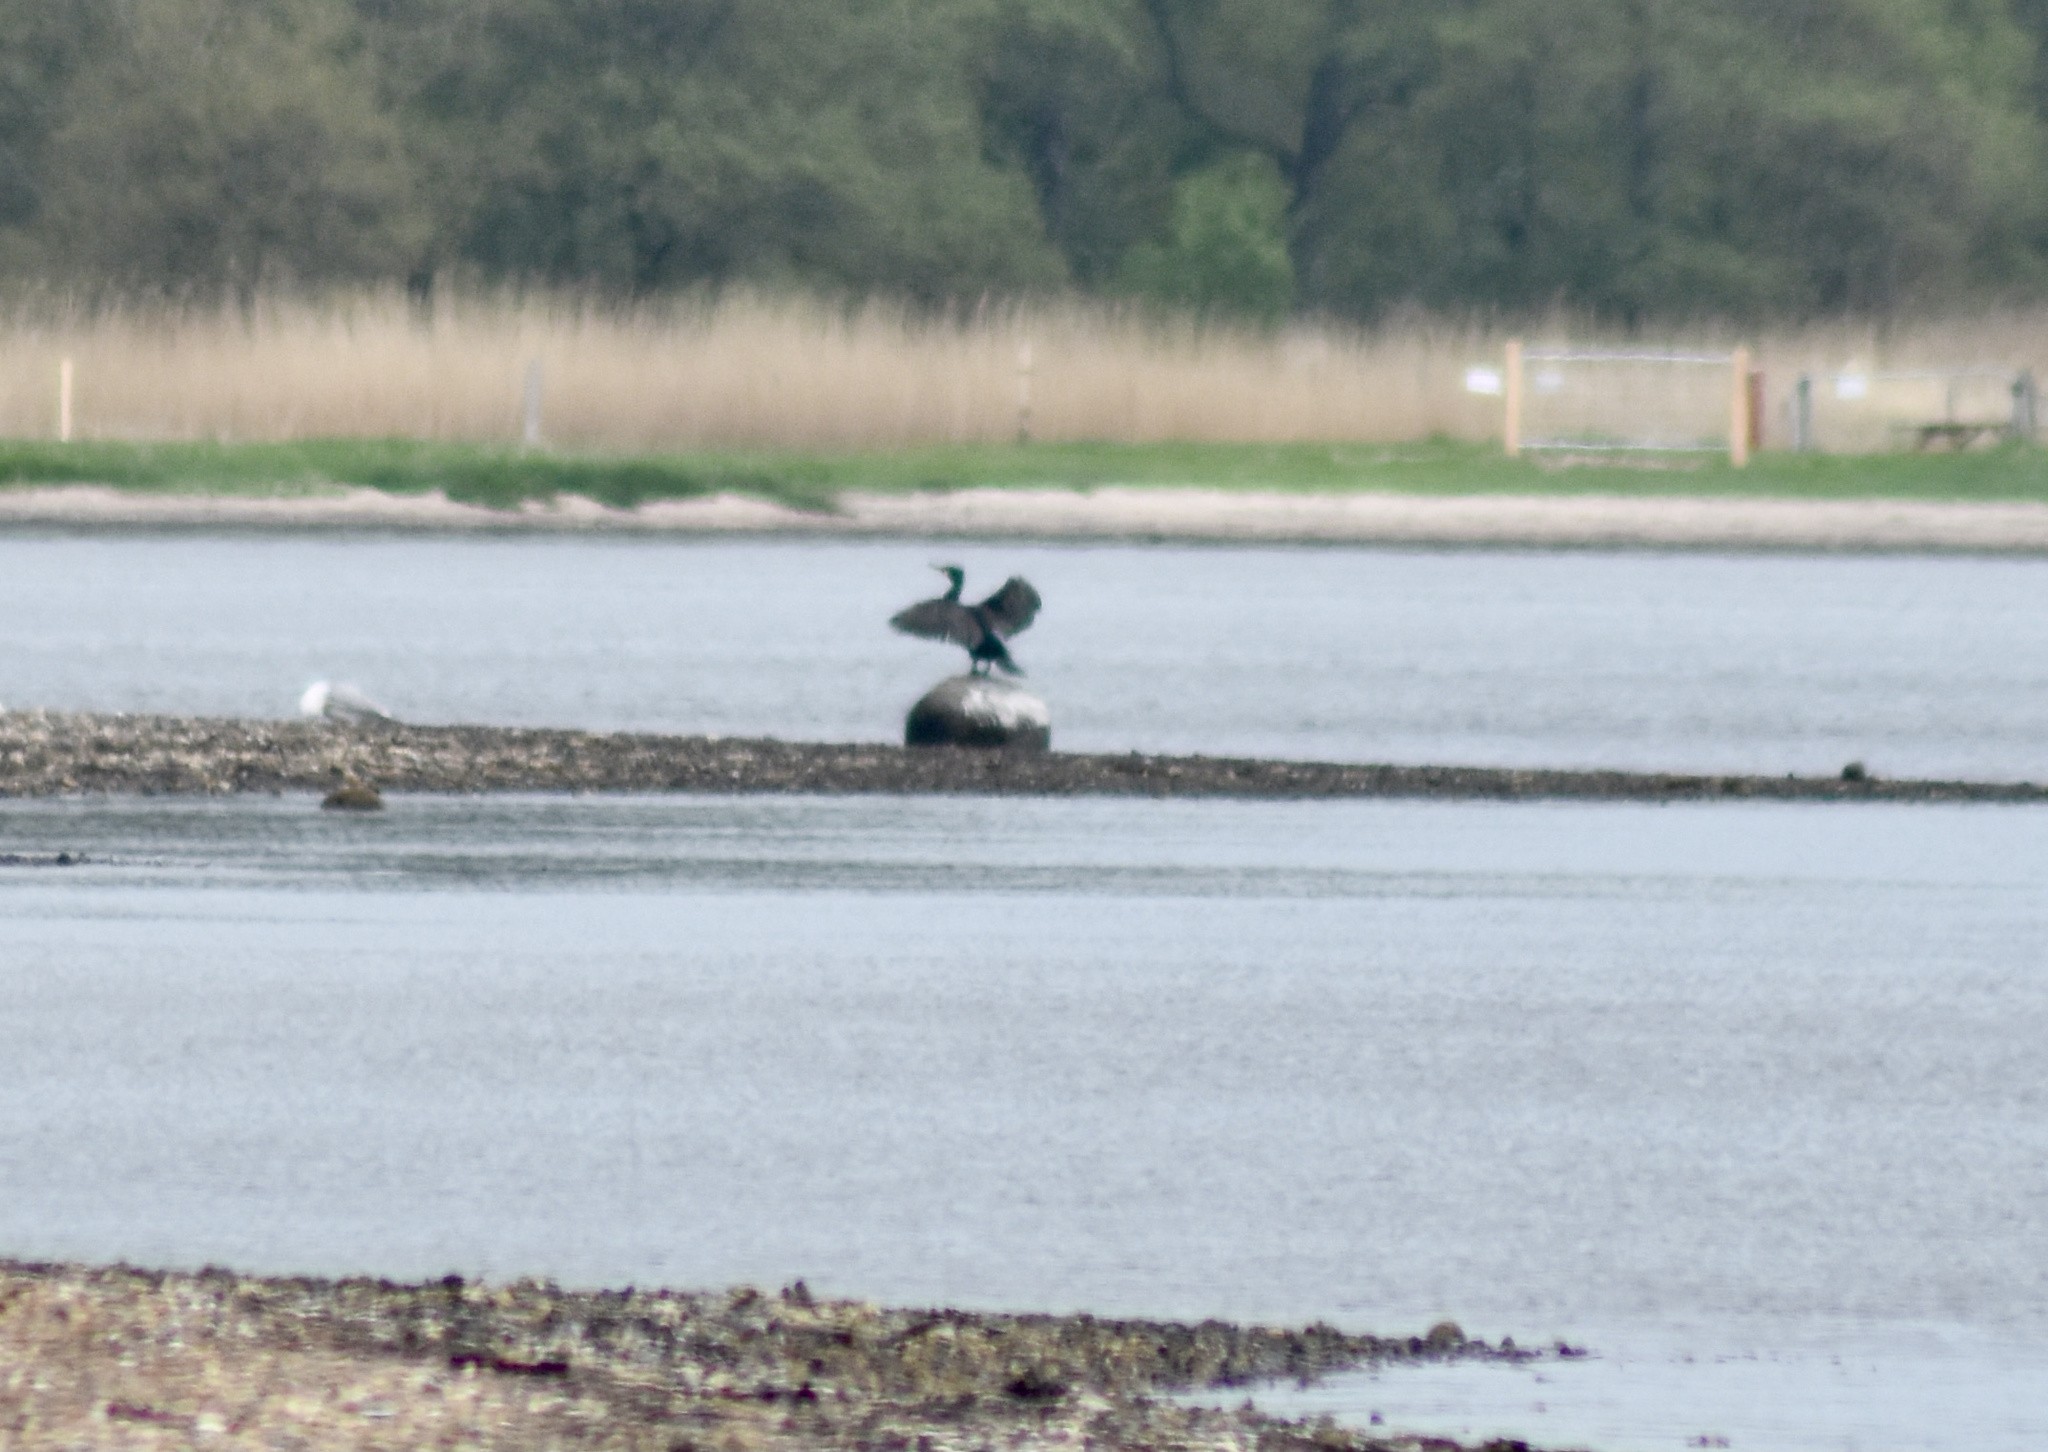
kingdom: Animalia
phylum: Chordata
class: Aves
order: Suliformes
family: Phalacrocoracidae
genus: Phalacrocorax
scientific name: Phalacrocorax carbo
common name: Great cormorant
